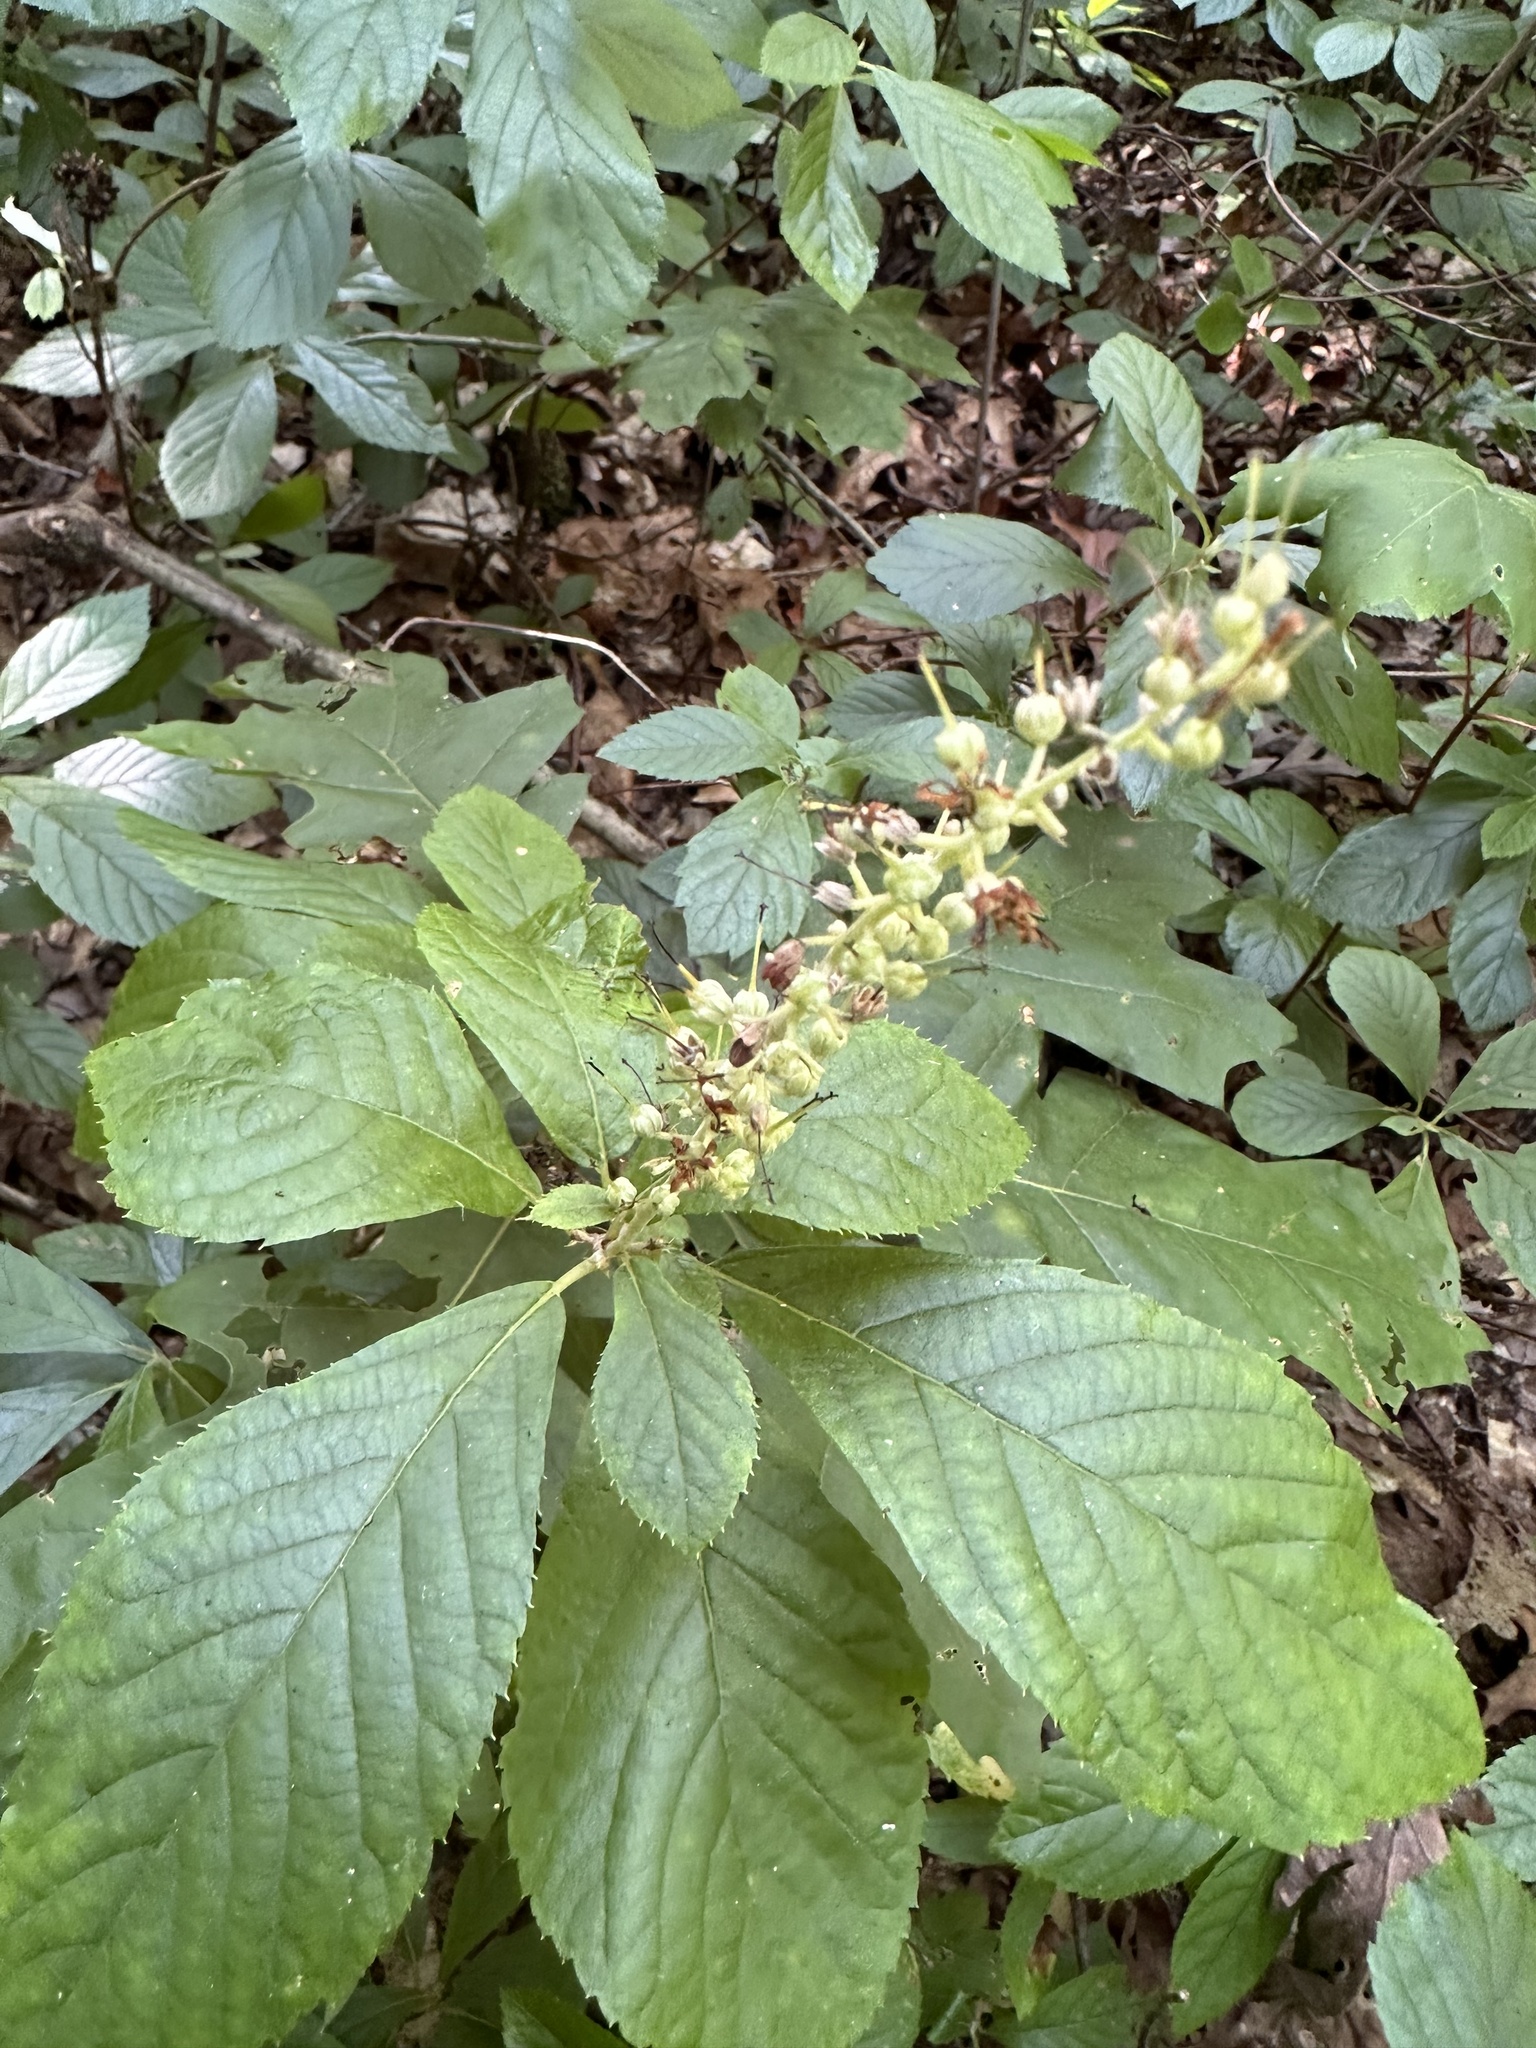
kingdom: Plantae
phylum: Tracheophyta
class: Magnoliopsida
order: Ericales
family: Clethraceae
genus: Clethra
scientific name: Clethra alnifolia
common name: Sweet pepperbush
